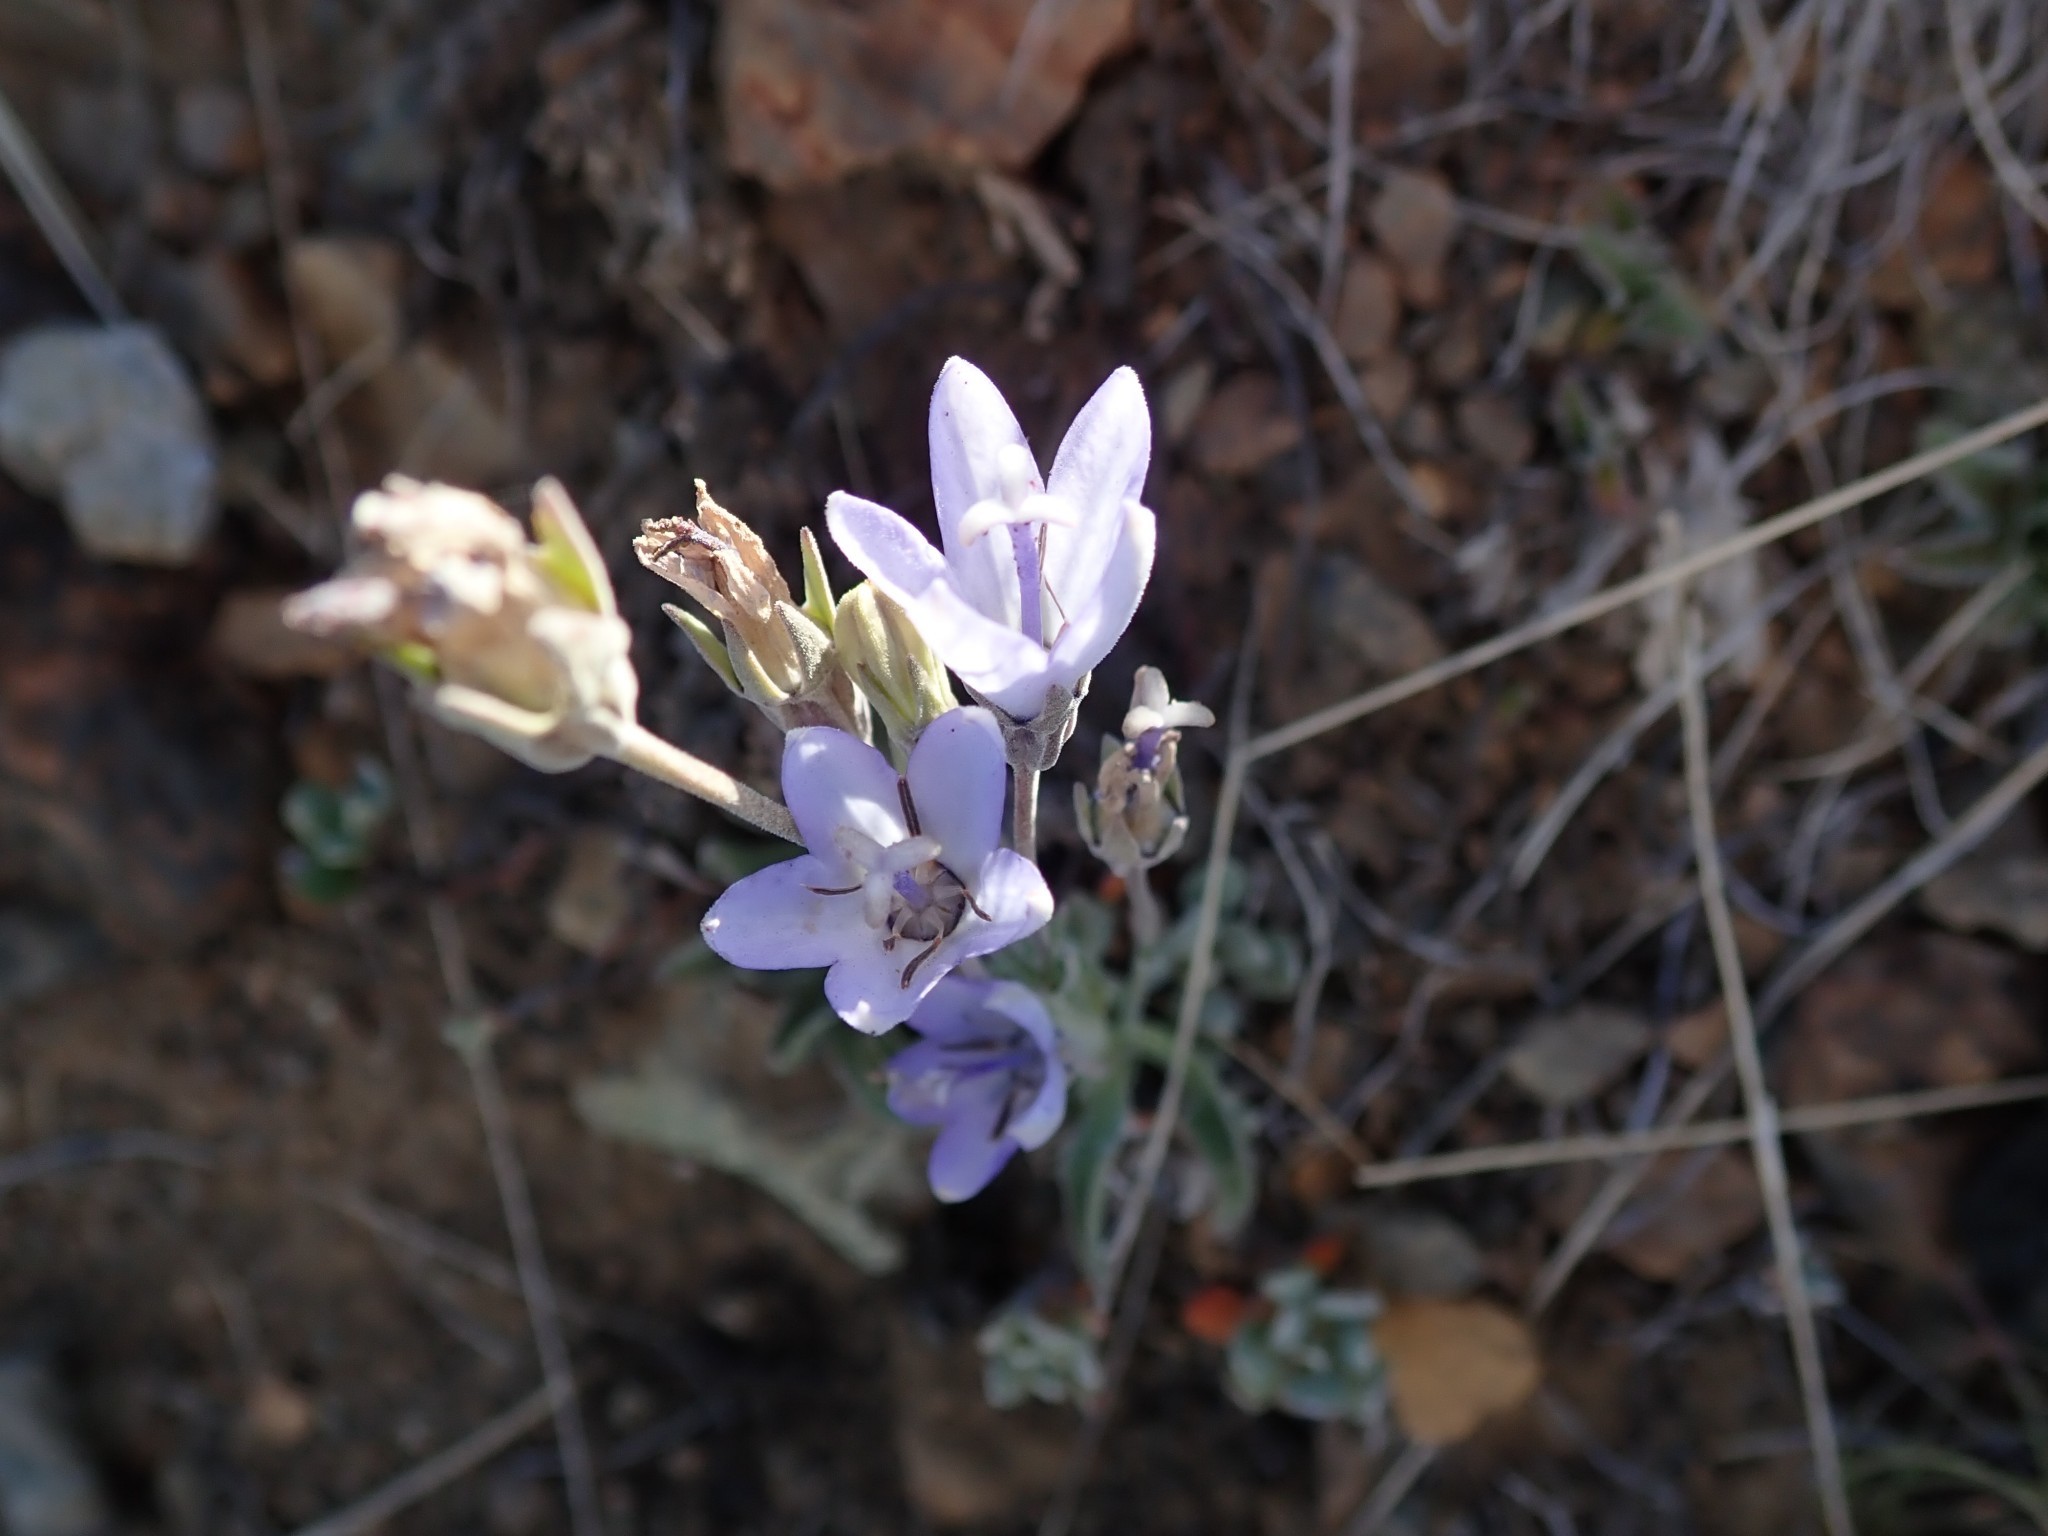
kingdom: Plantae
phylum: Tracheophyta
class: Magnoliopsida
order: Asterales
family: Campanulaceae
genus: Campanula
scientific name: Campanula scabrella
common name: Downy alpine bellflower
